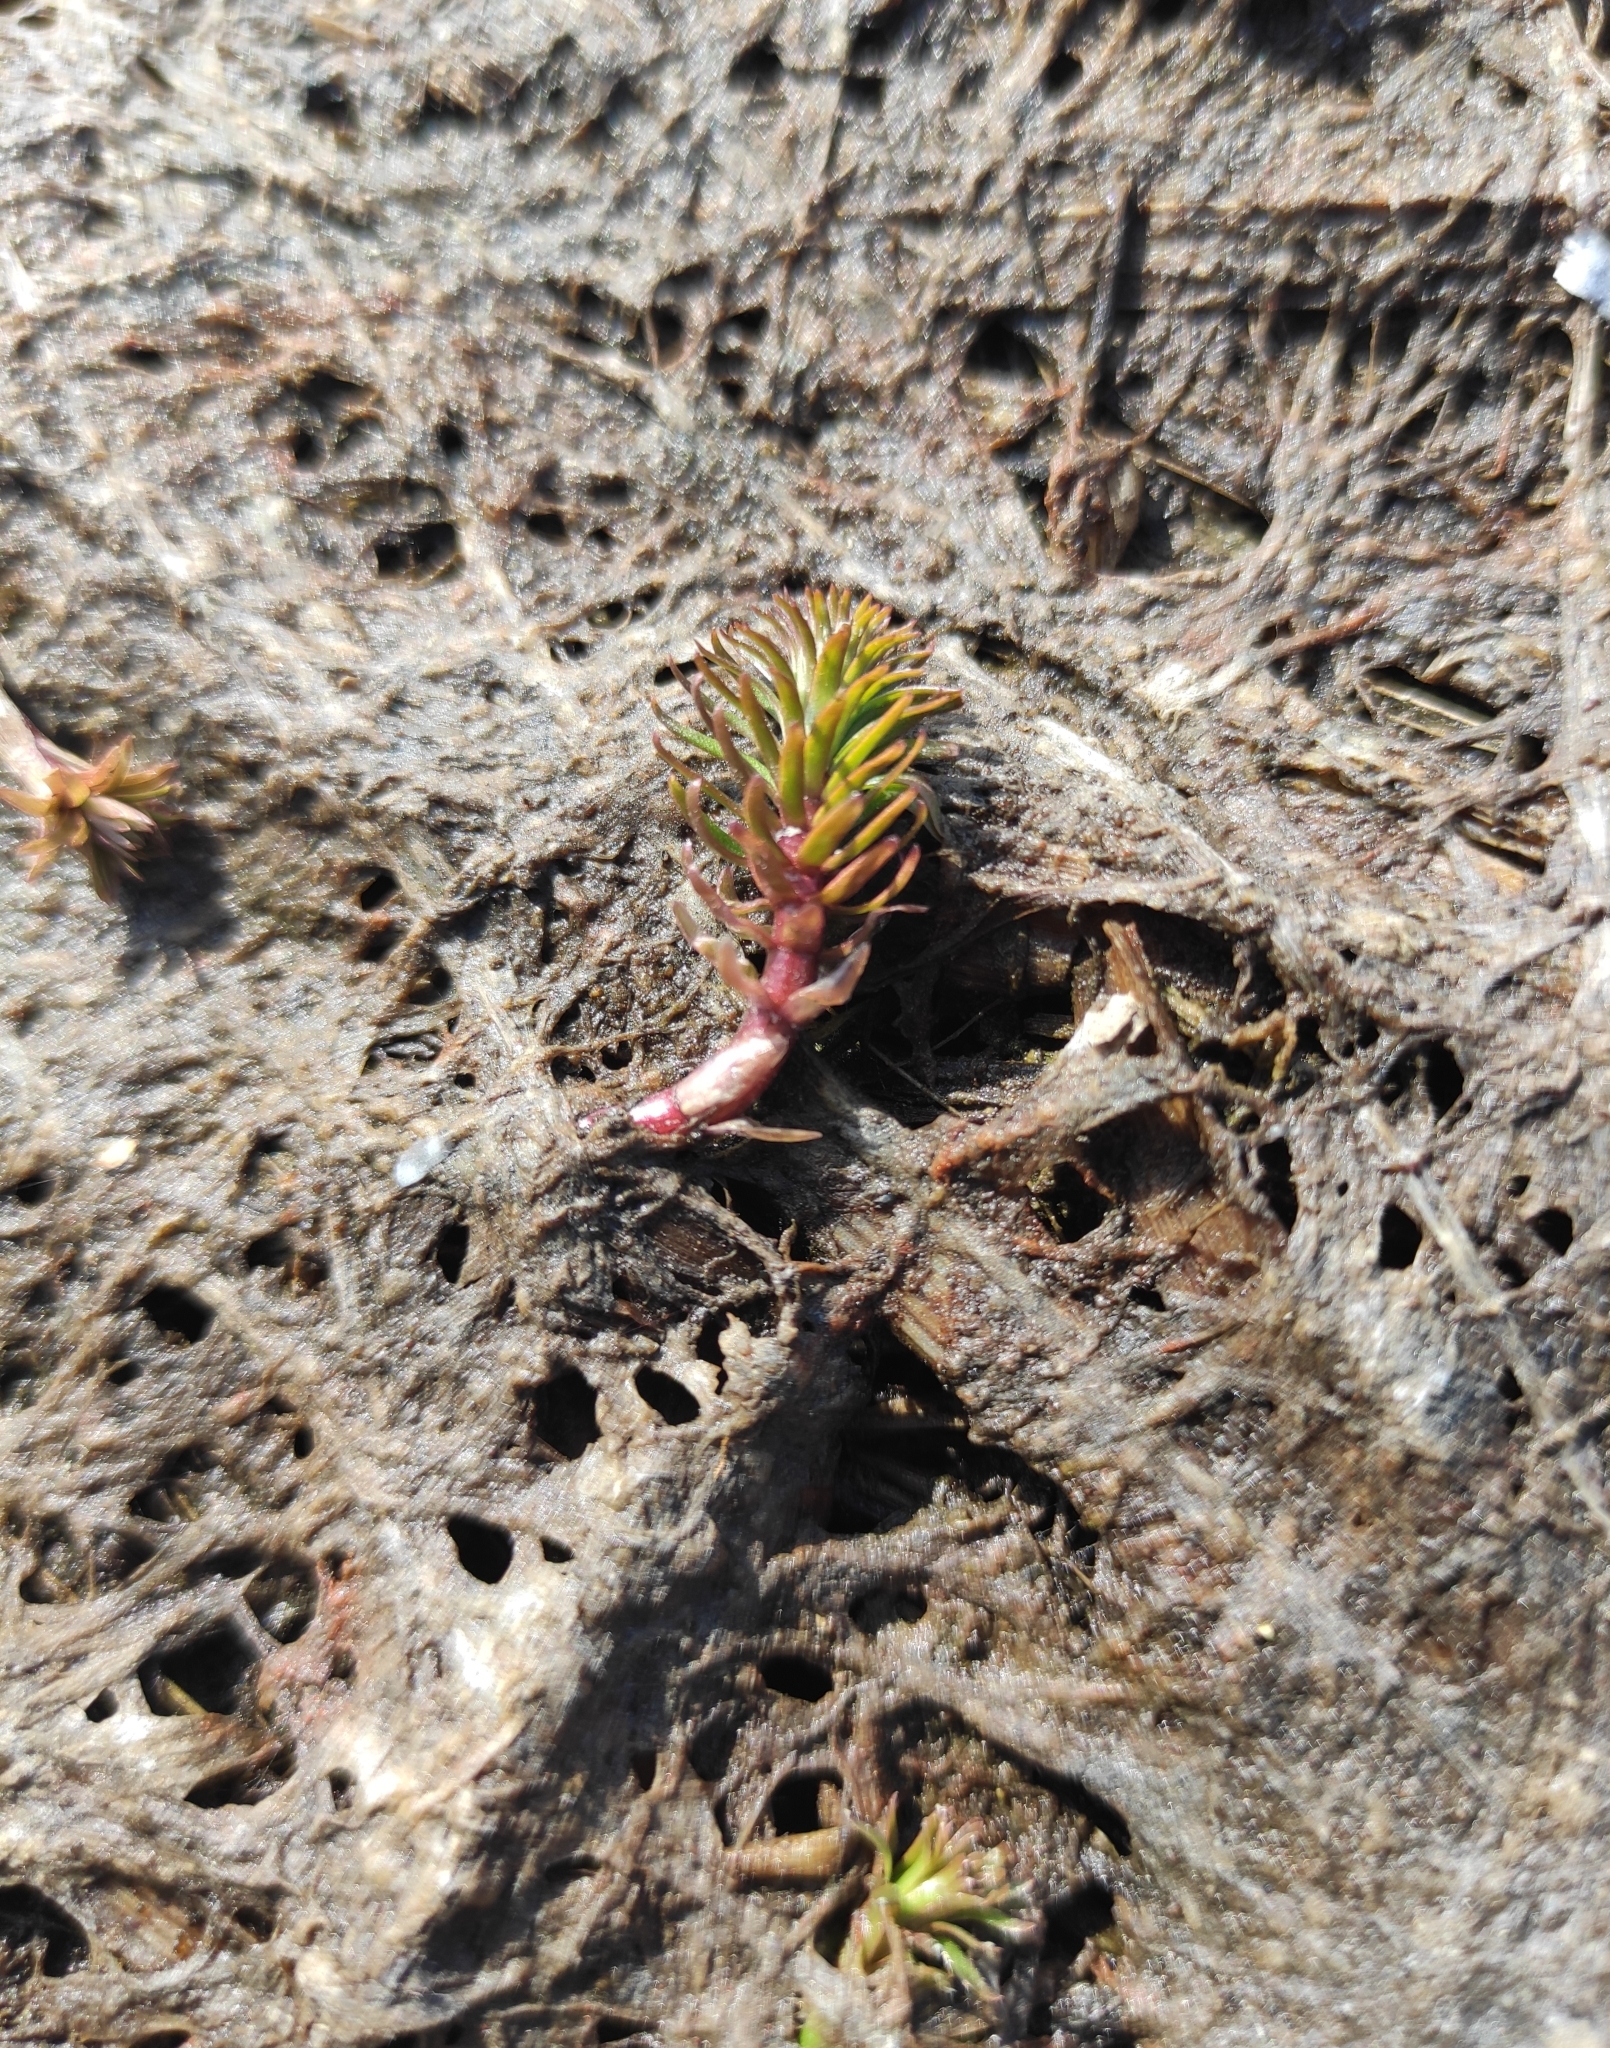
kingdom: Plantae
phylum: Tracheophyta
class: Magnoliopsida
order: Lamiales
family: Plantaginaceae
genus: Hippuris
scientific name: Hippuris vulgaris
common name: Mare's-tail
